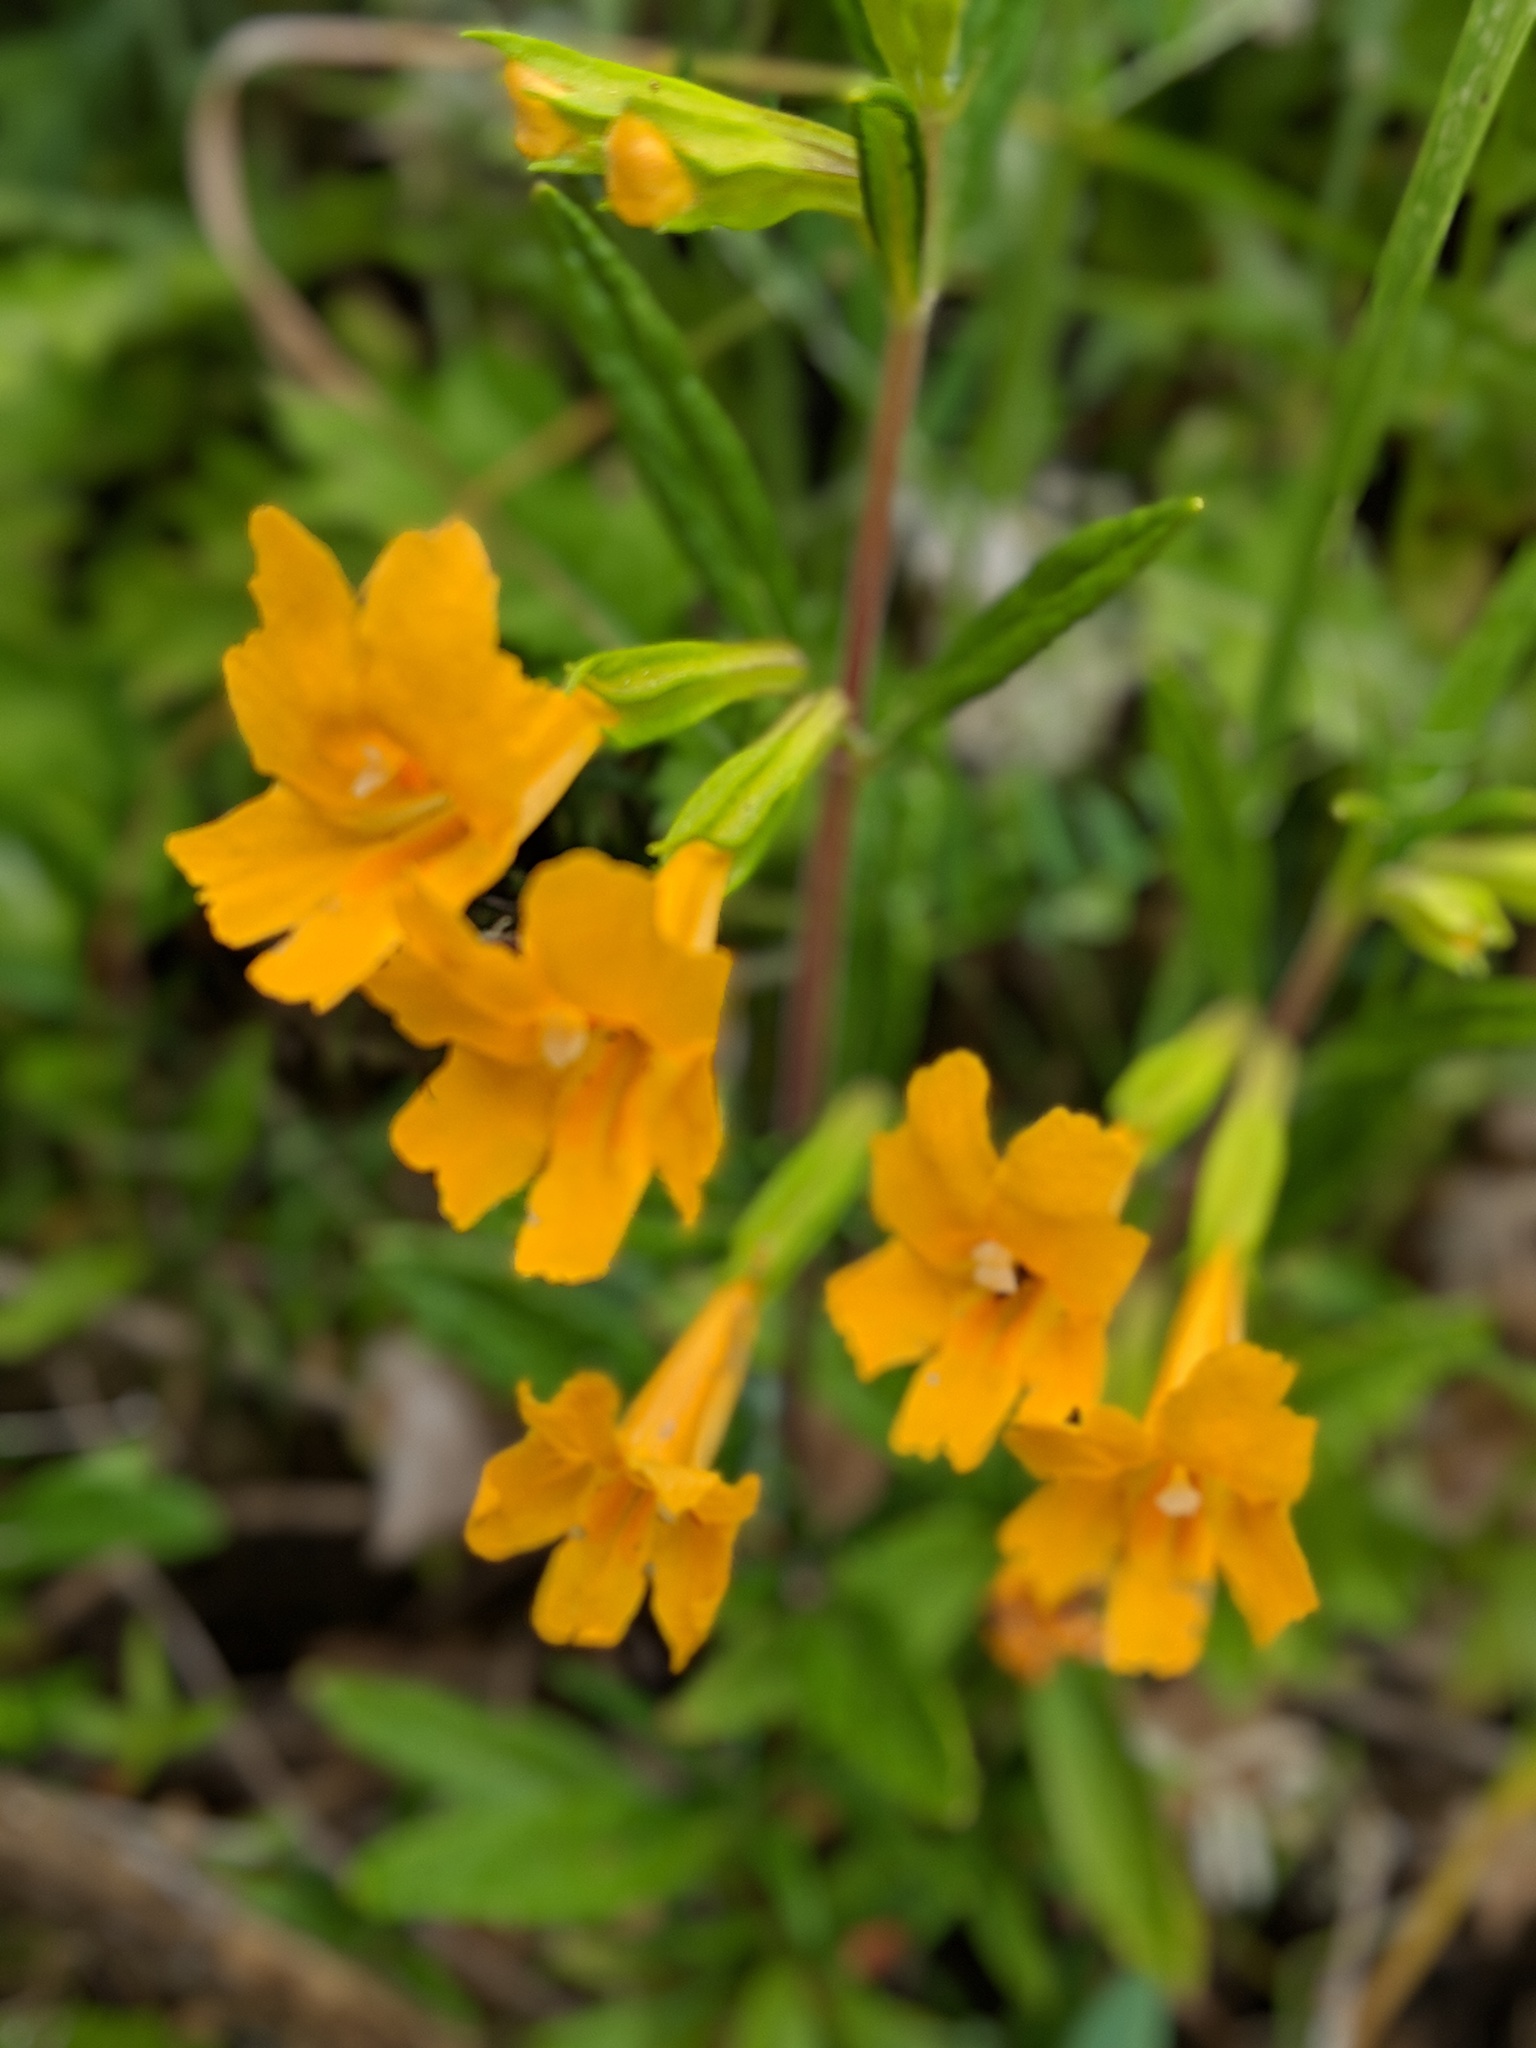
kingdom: Plantae
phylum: Tracheophyta
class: Magnoliopsida
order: Lamiales
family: Phrymaceae
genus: Diplacus
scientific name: Diplacus aurantiacus
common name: Bush monkey-flower
